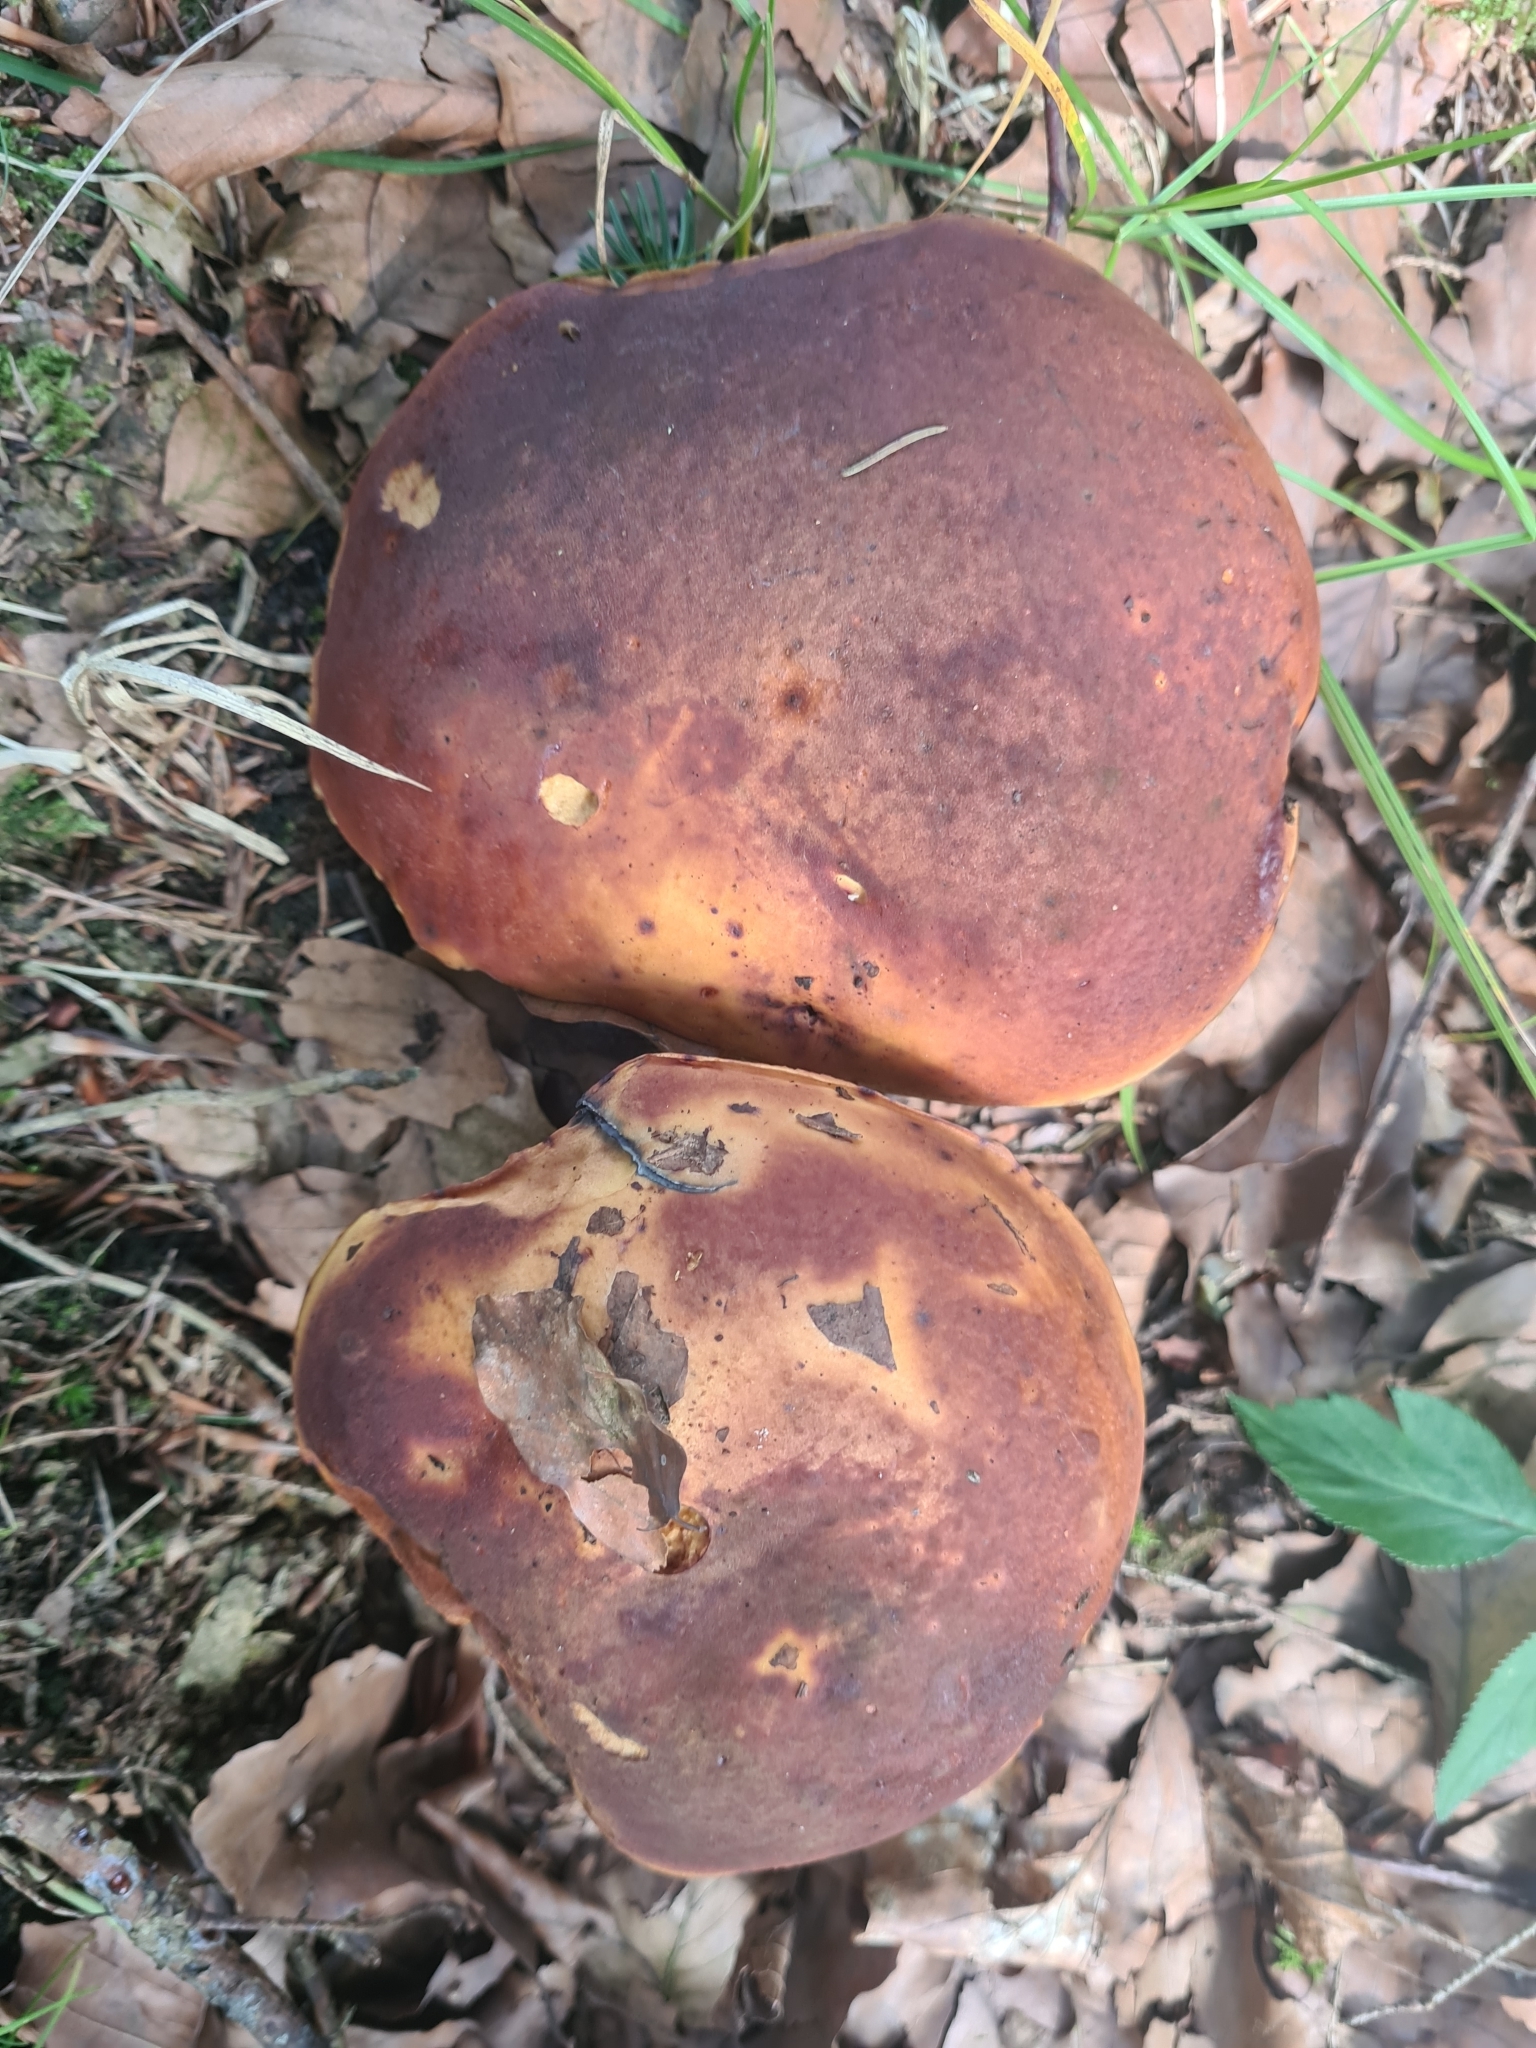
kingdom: Fungi
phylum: Basidiomycota
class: Agaricomycetes
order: Boletales
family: Boletaceae
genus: Neoboletus
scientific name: Neoboletus erythropus
